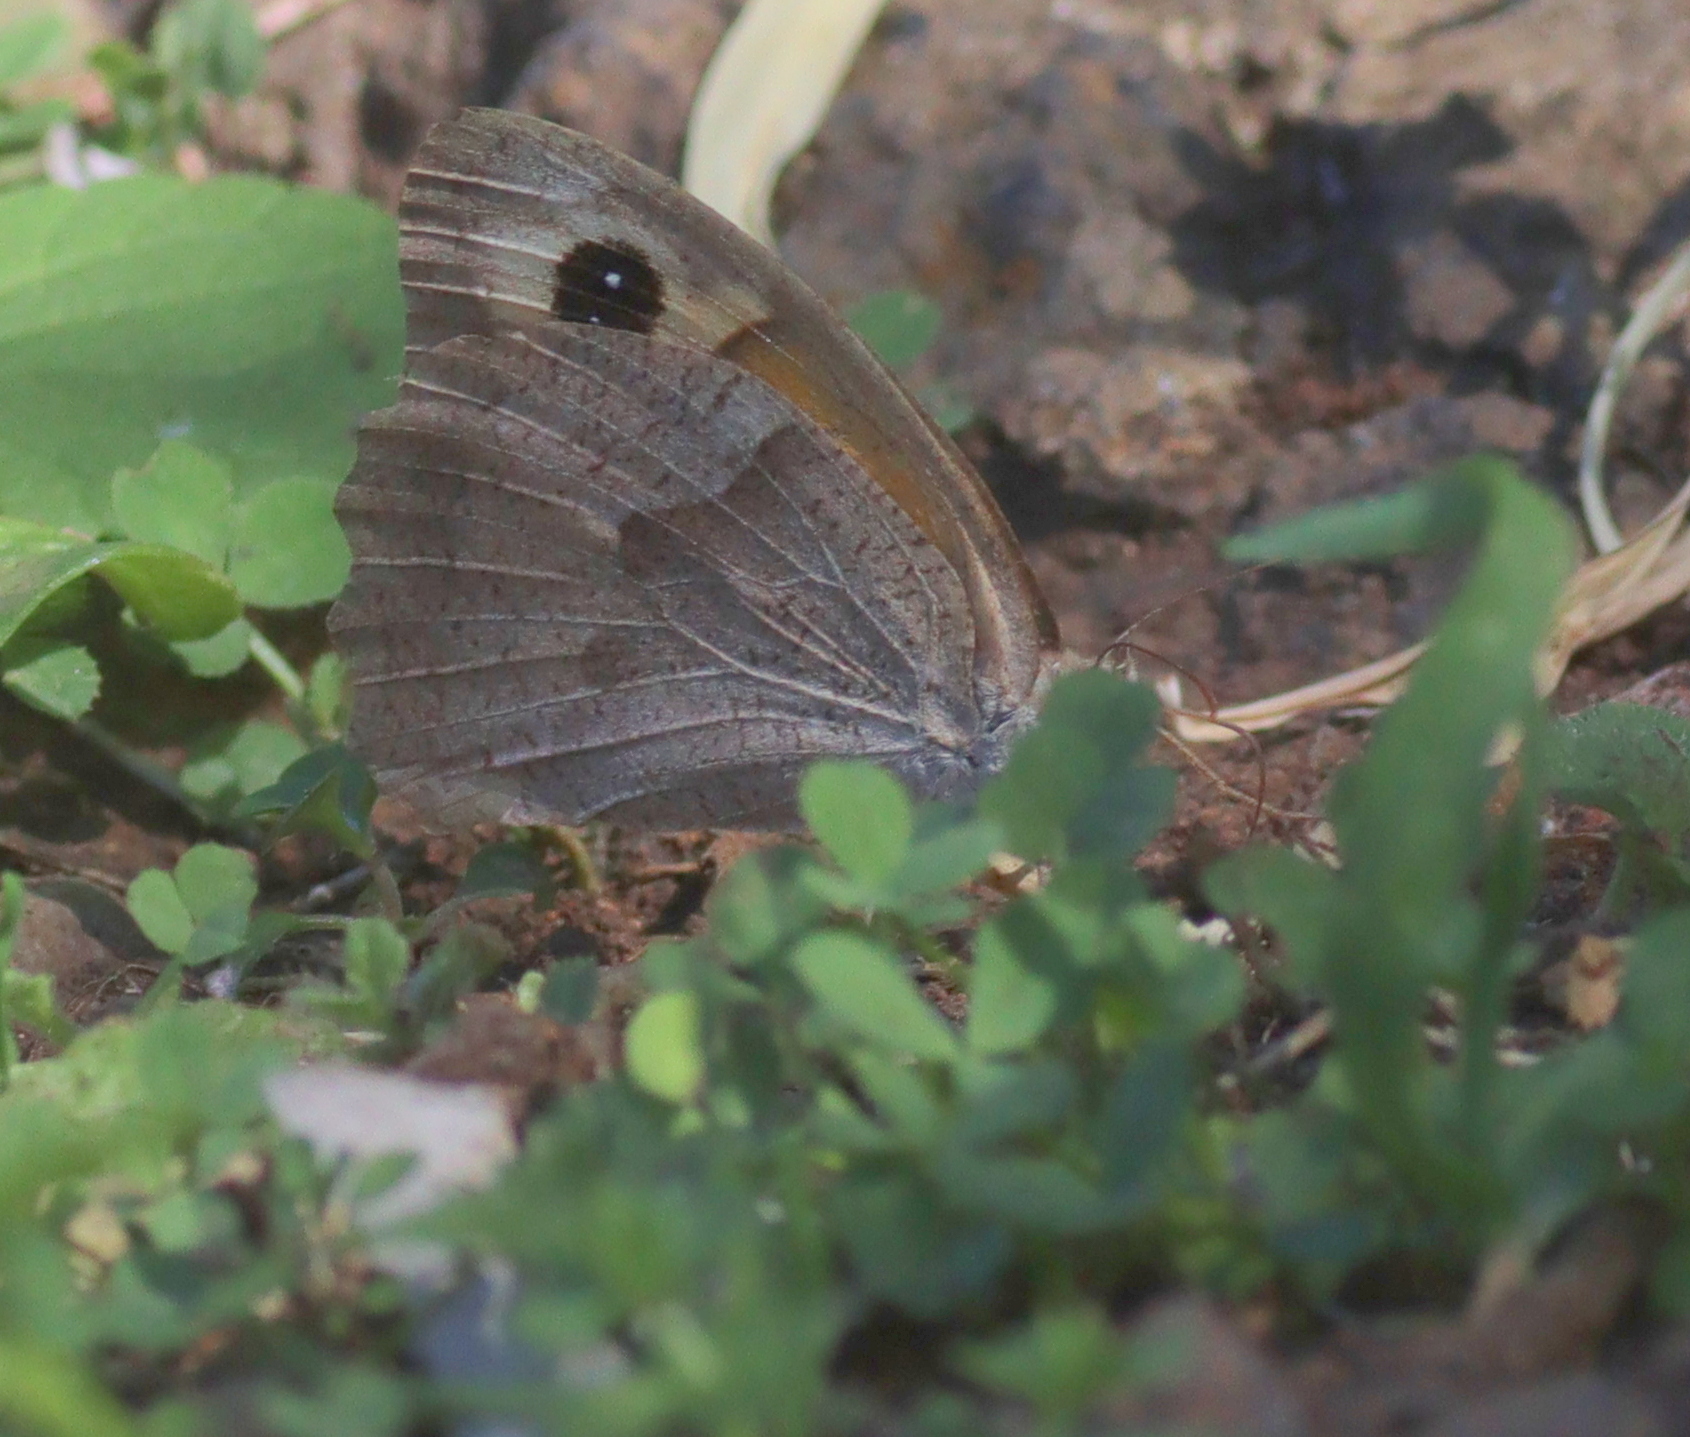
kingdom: Animalia
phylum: Arthropoda
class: Insecta
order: Lepidoptera
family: Nymphalidae
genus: Maniola
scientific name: Maniola jurtina
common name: Meadow brown
